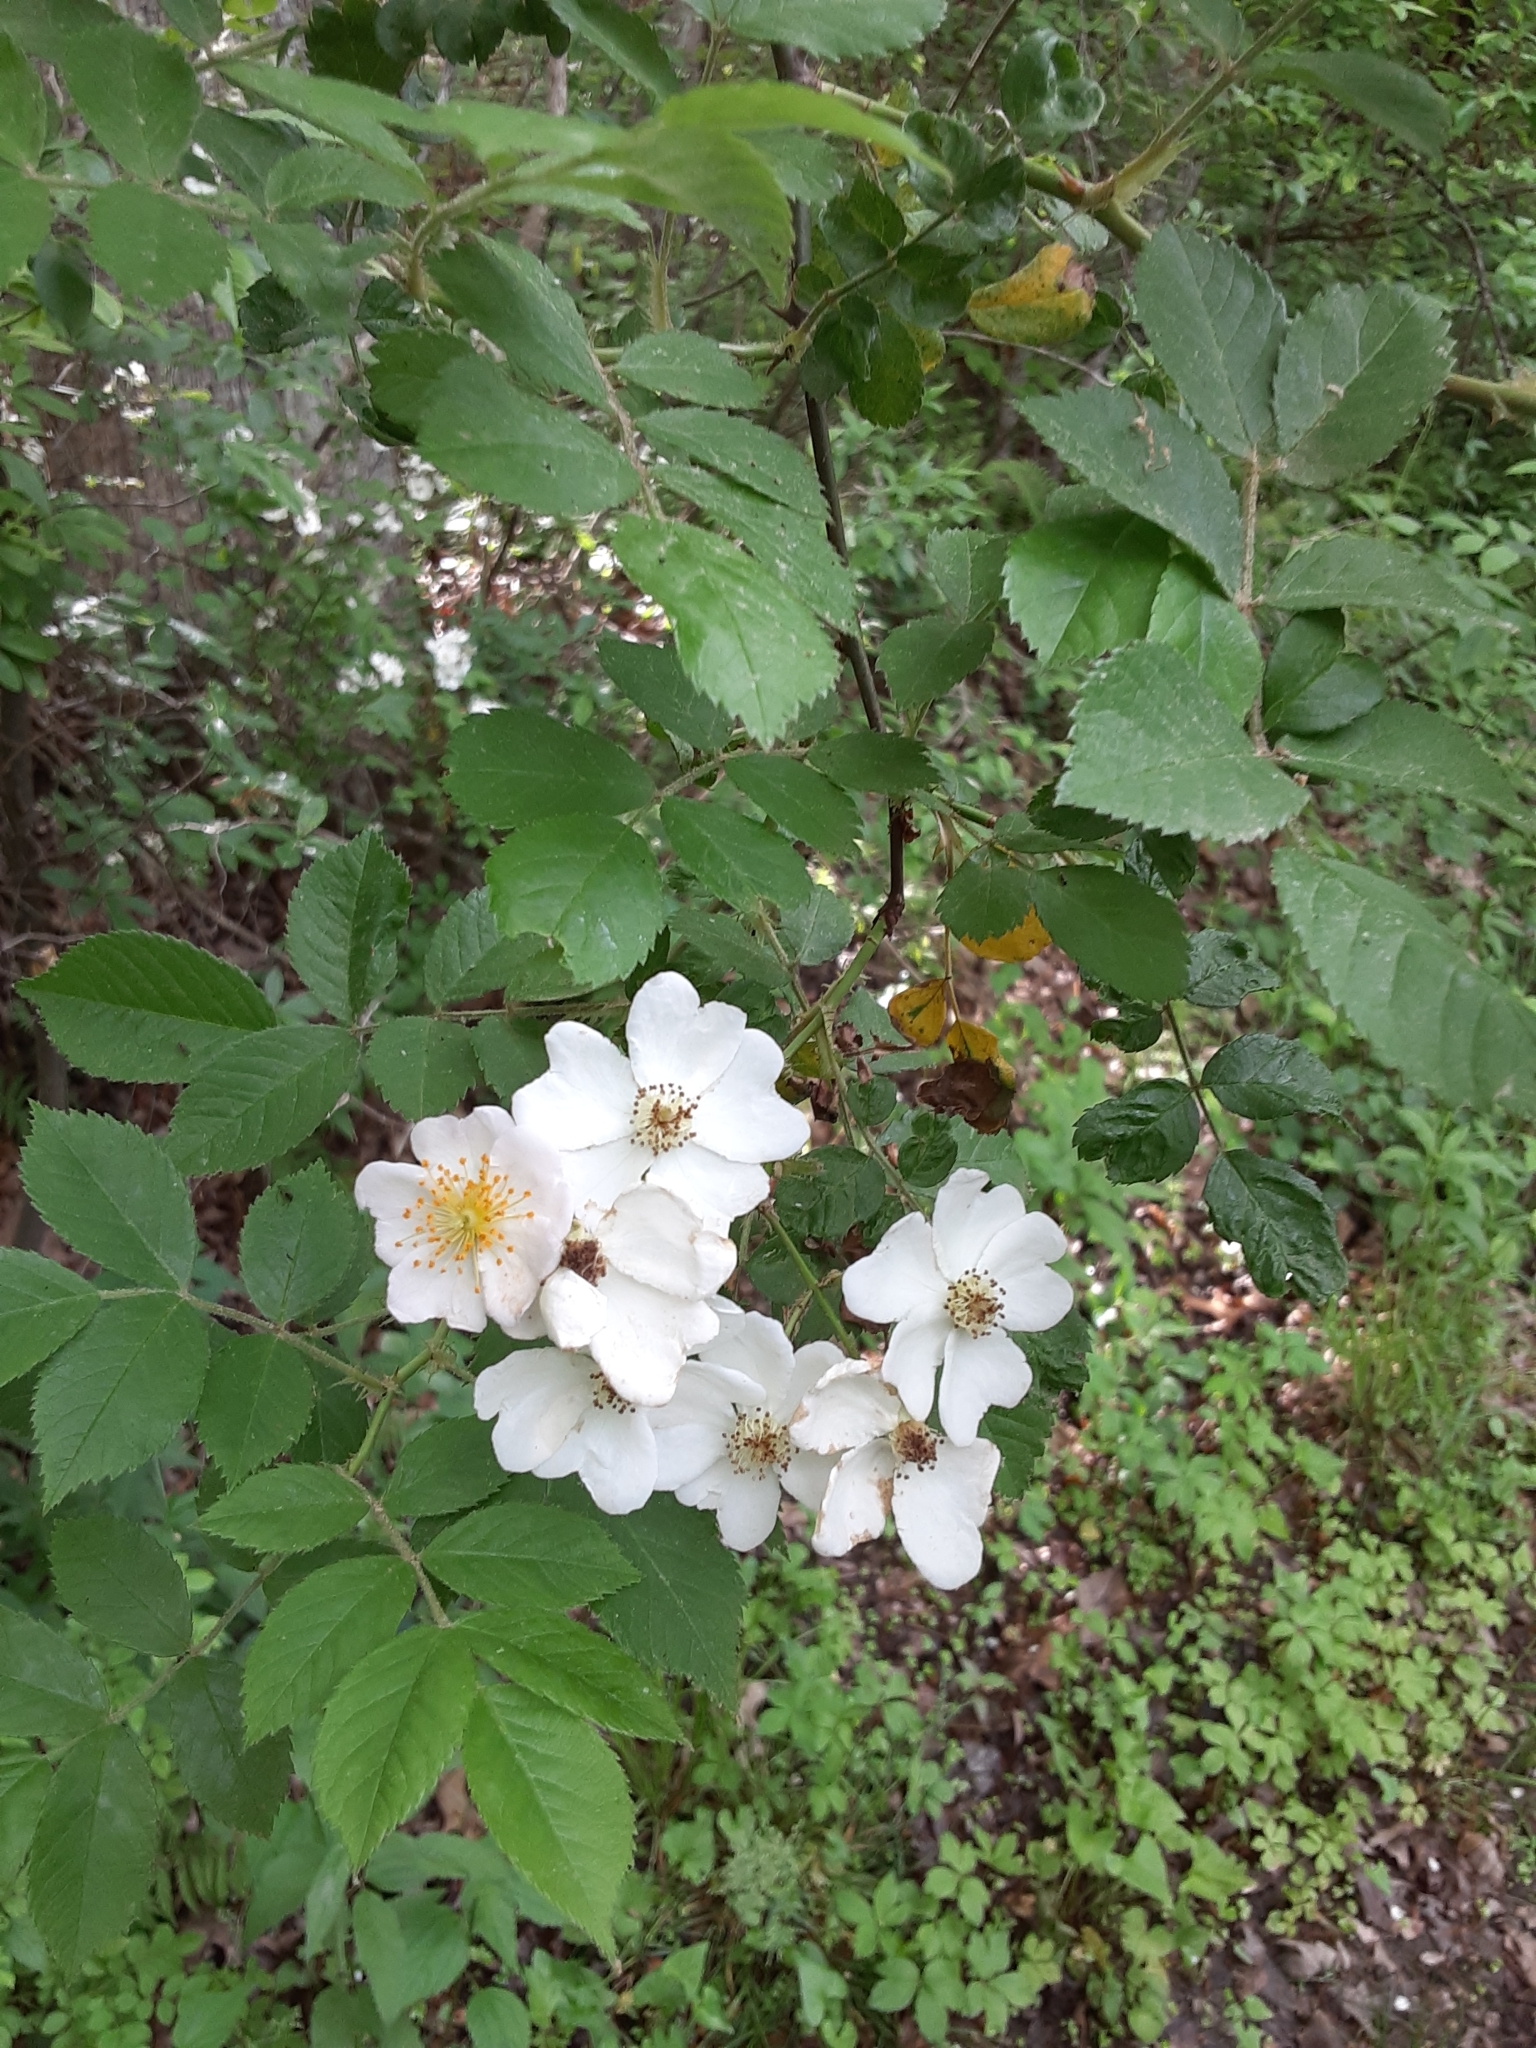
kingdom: Plantae
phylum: Tracheophyta
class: Magnoliopsida
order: Rosales
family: Rosaceae
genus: Rosa
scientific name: Rosa multiflora
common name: Multiflora rose
